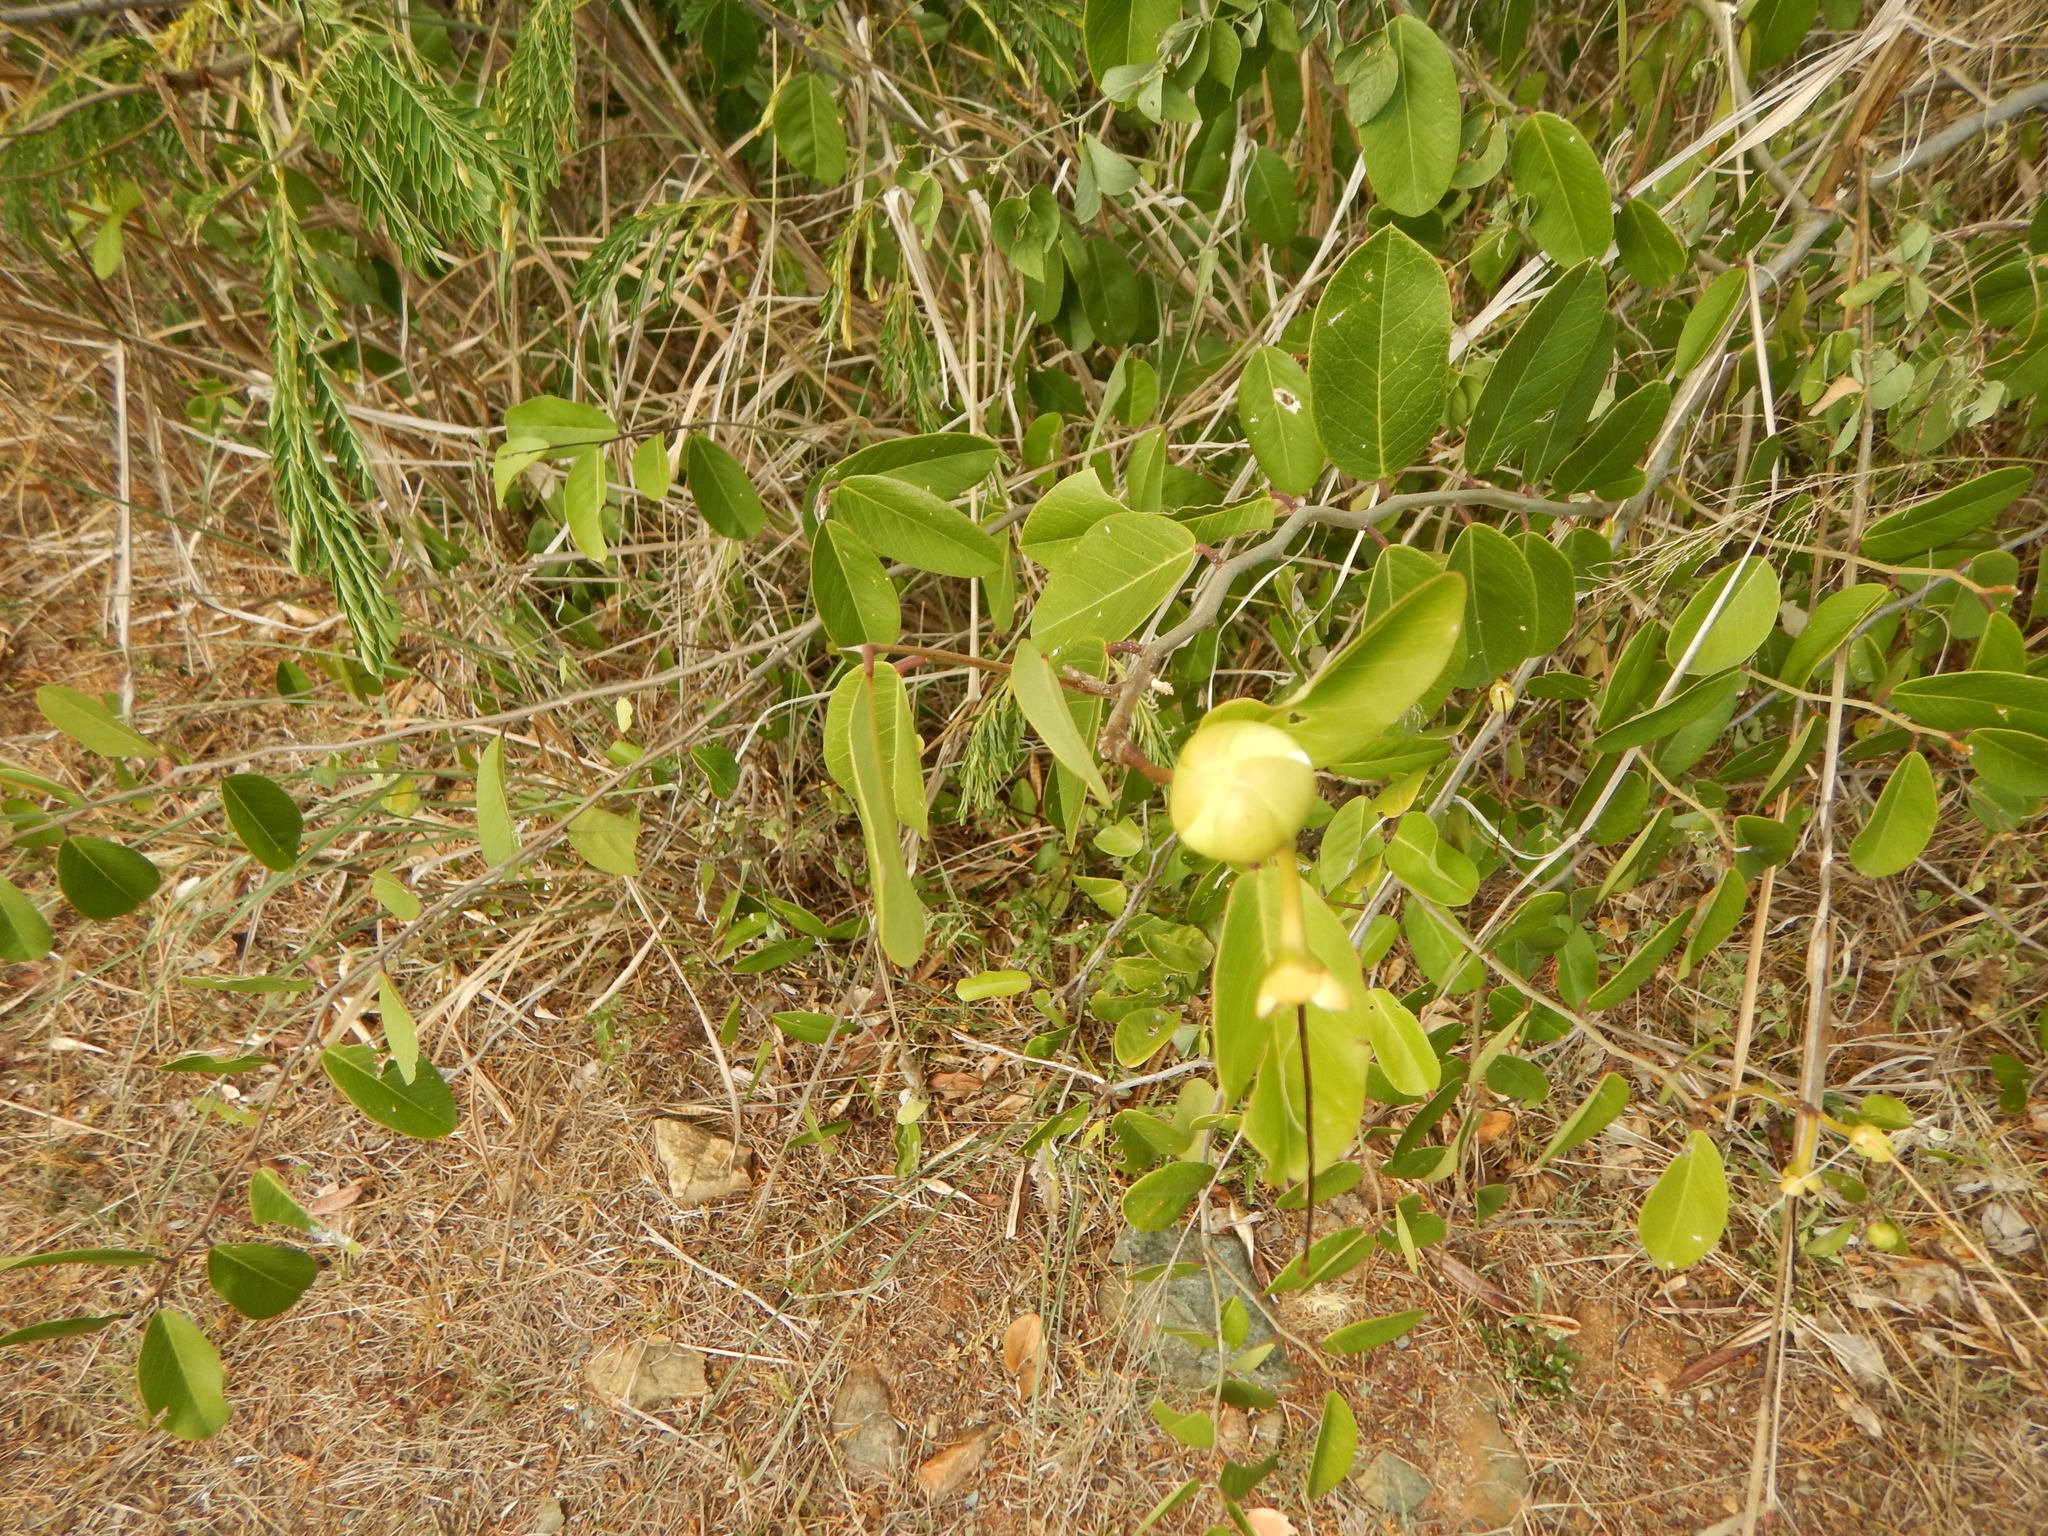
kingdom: Plantae
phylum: Tracheophyta
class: Magnoliopsida
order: Brassicales
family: Capparaceae
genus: Cynophalla
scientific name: Cynophalla flexuosa
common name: Capertree
